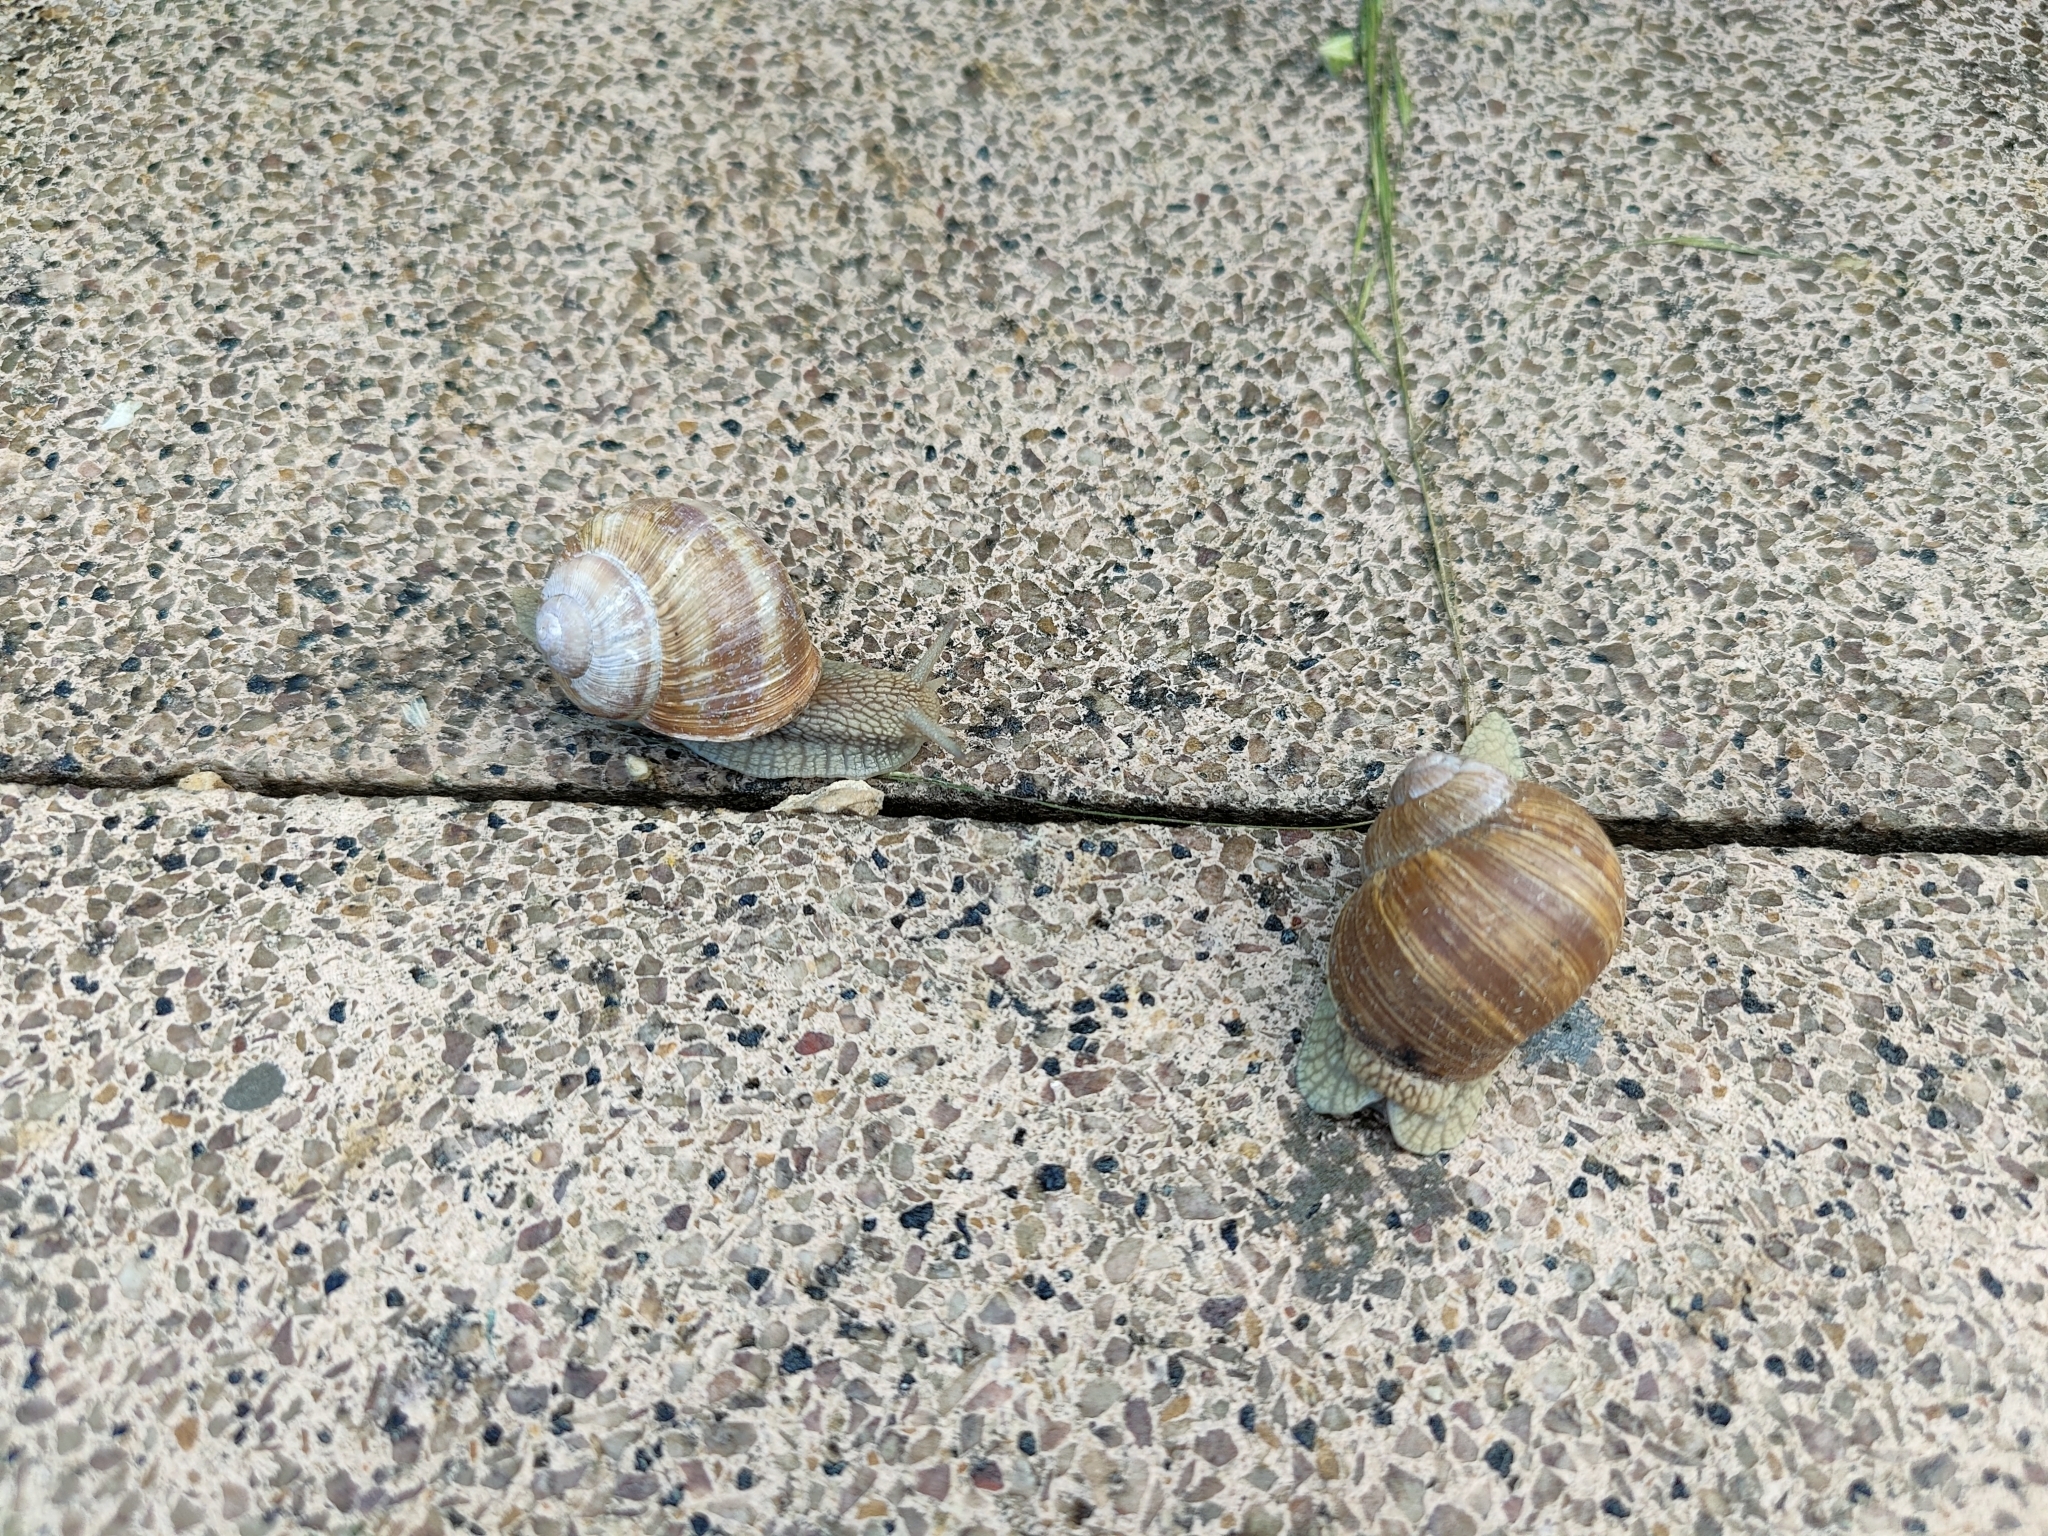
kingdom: Animalia
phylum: Mollusca
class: Gastropoda
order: Stylommatophora
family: Helicidae
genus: Helix
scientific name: Helix pomatia
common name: Roman snail
